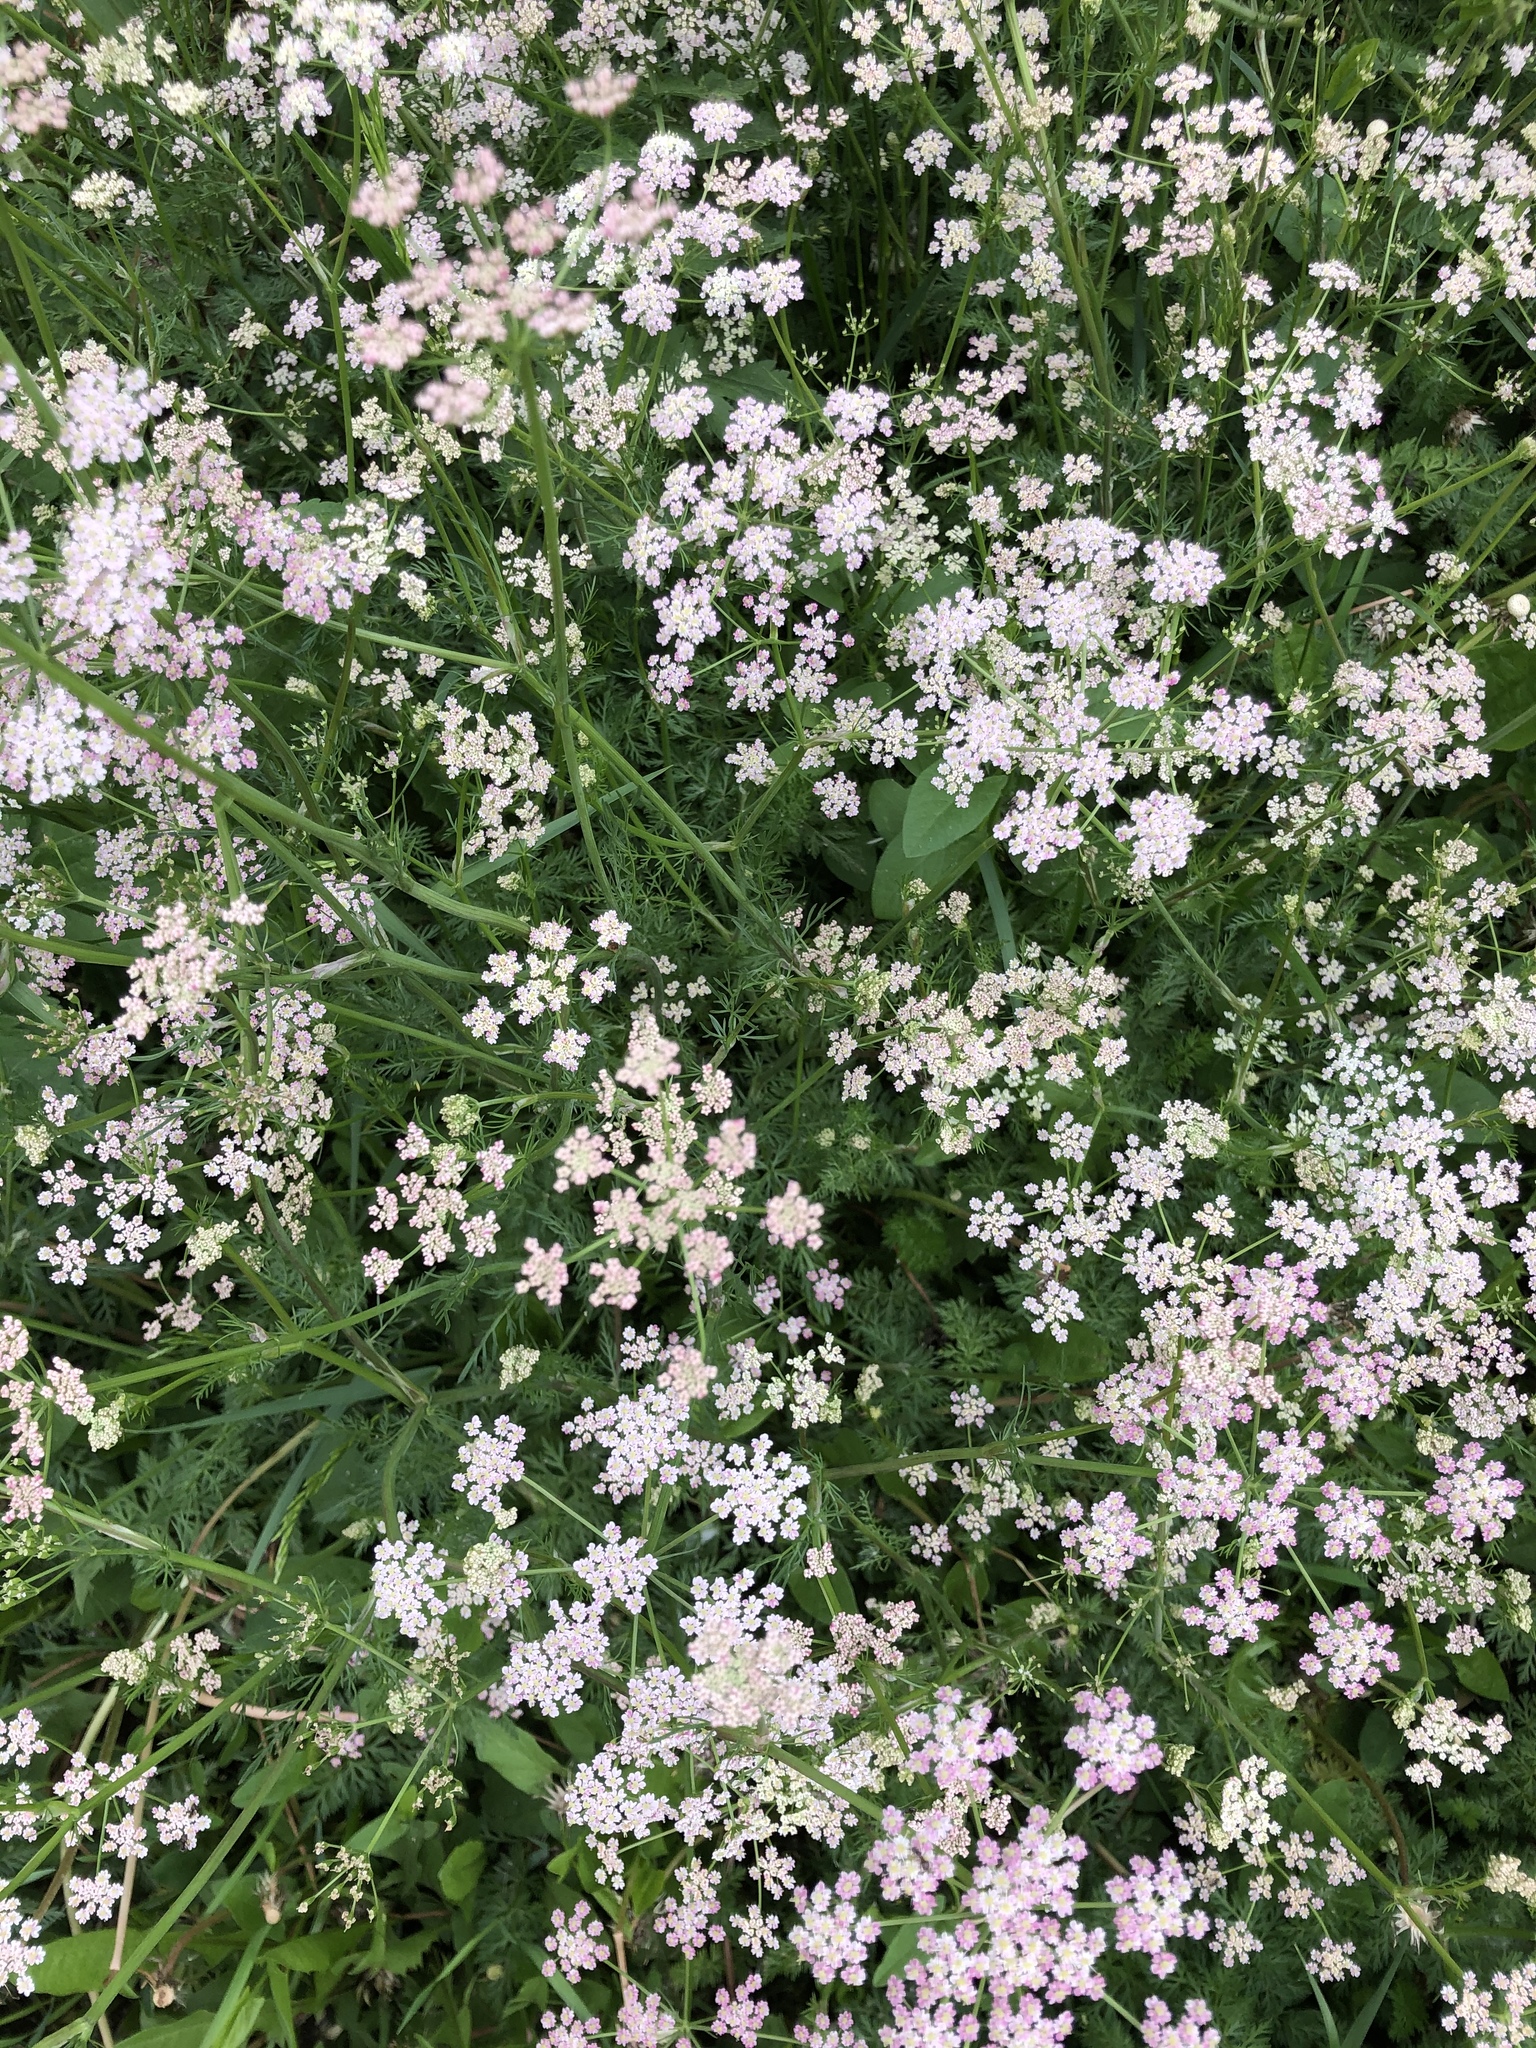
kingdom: Plantae
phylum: Tracheophyta
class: Magnoliopsida
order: Apiales
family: Apiaceae
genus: Carum
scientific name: Carum carvi
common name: Caraway
